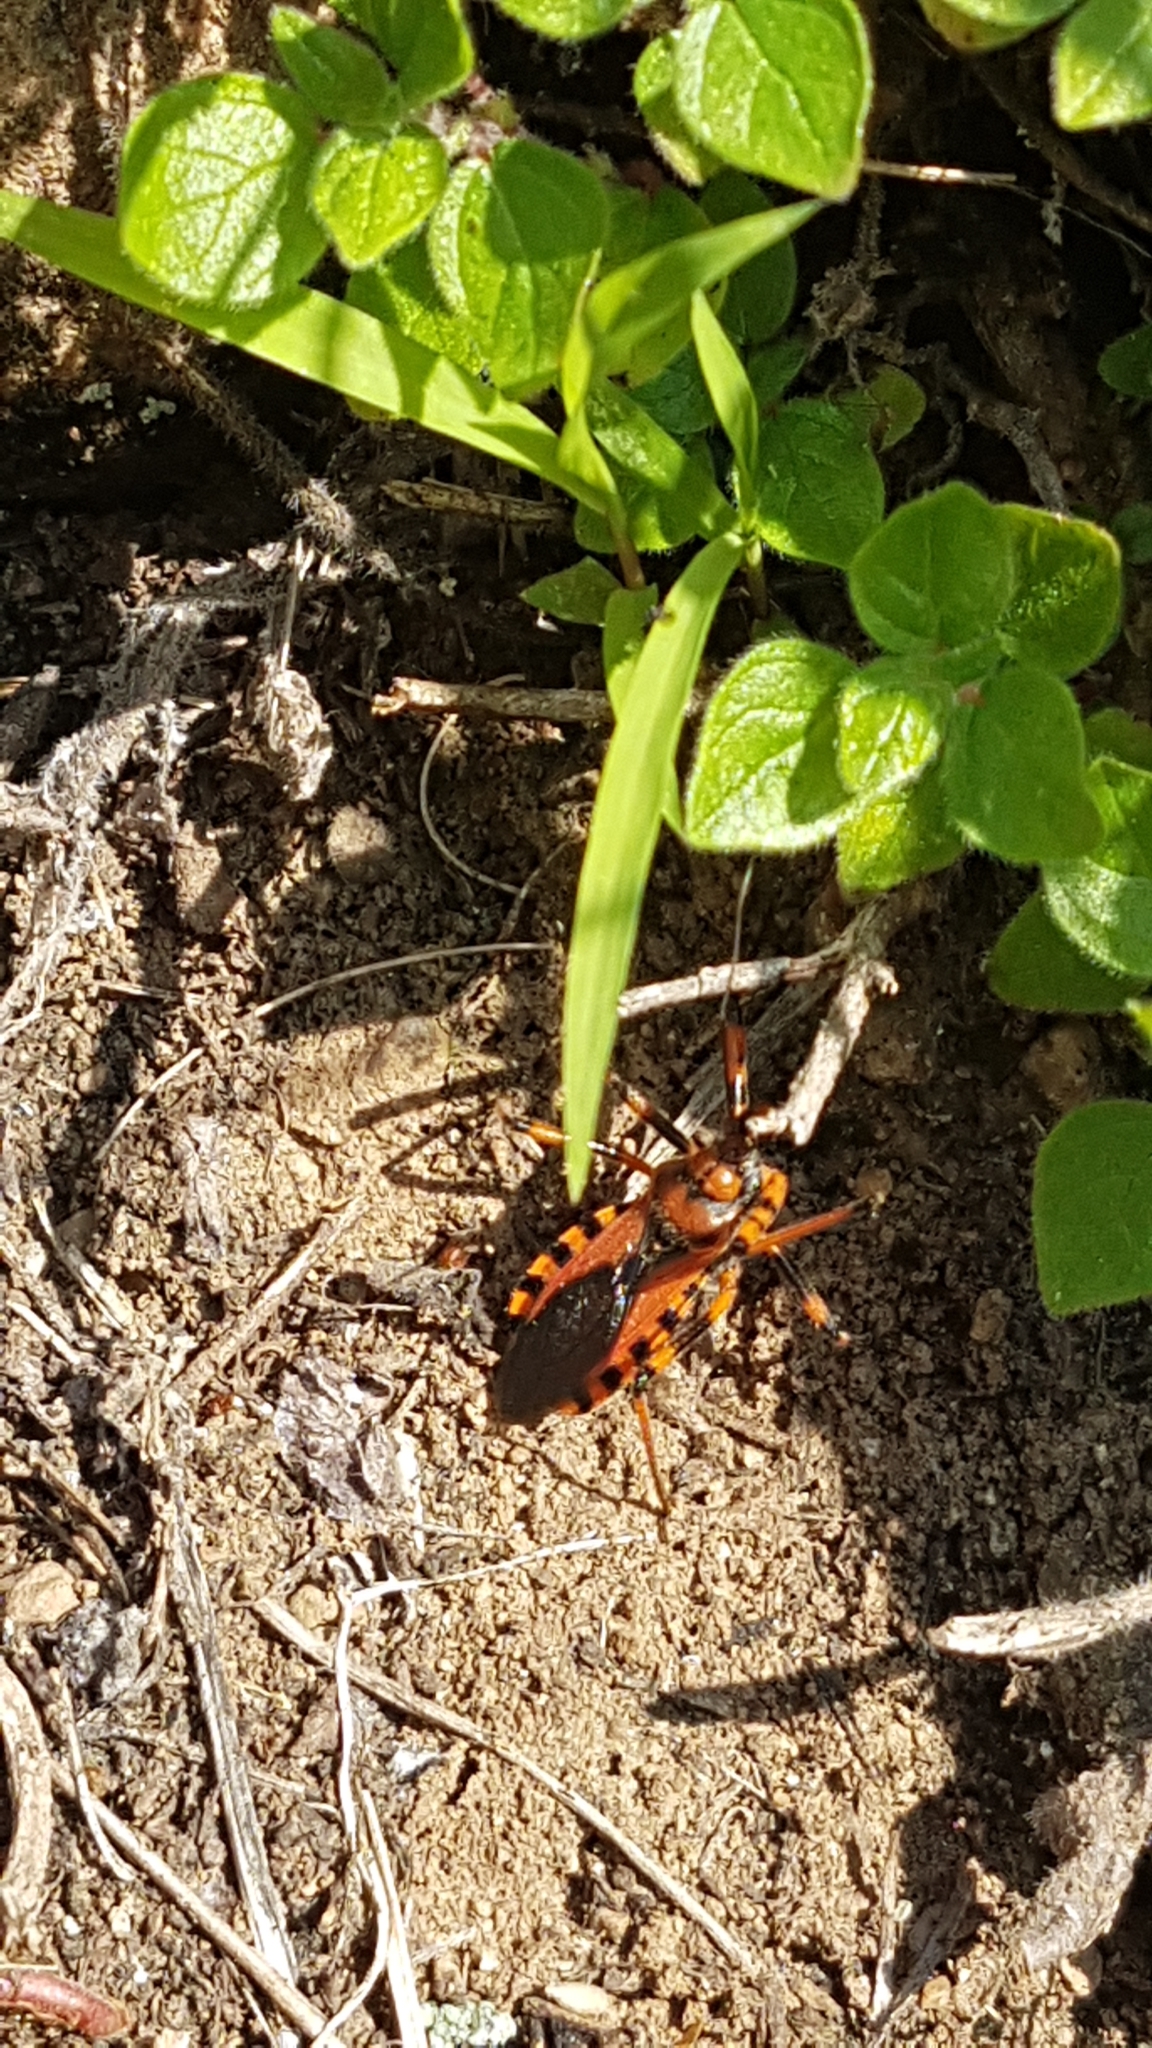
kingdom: Animalia
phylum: Arthropoda
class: Insecta
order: Hemiptera
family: Reduviidae
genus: Rhynocoris
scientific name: Rhynocoris iracundus
